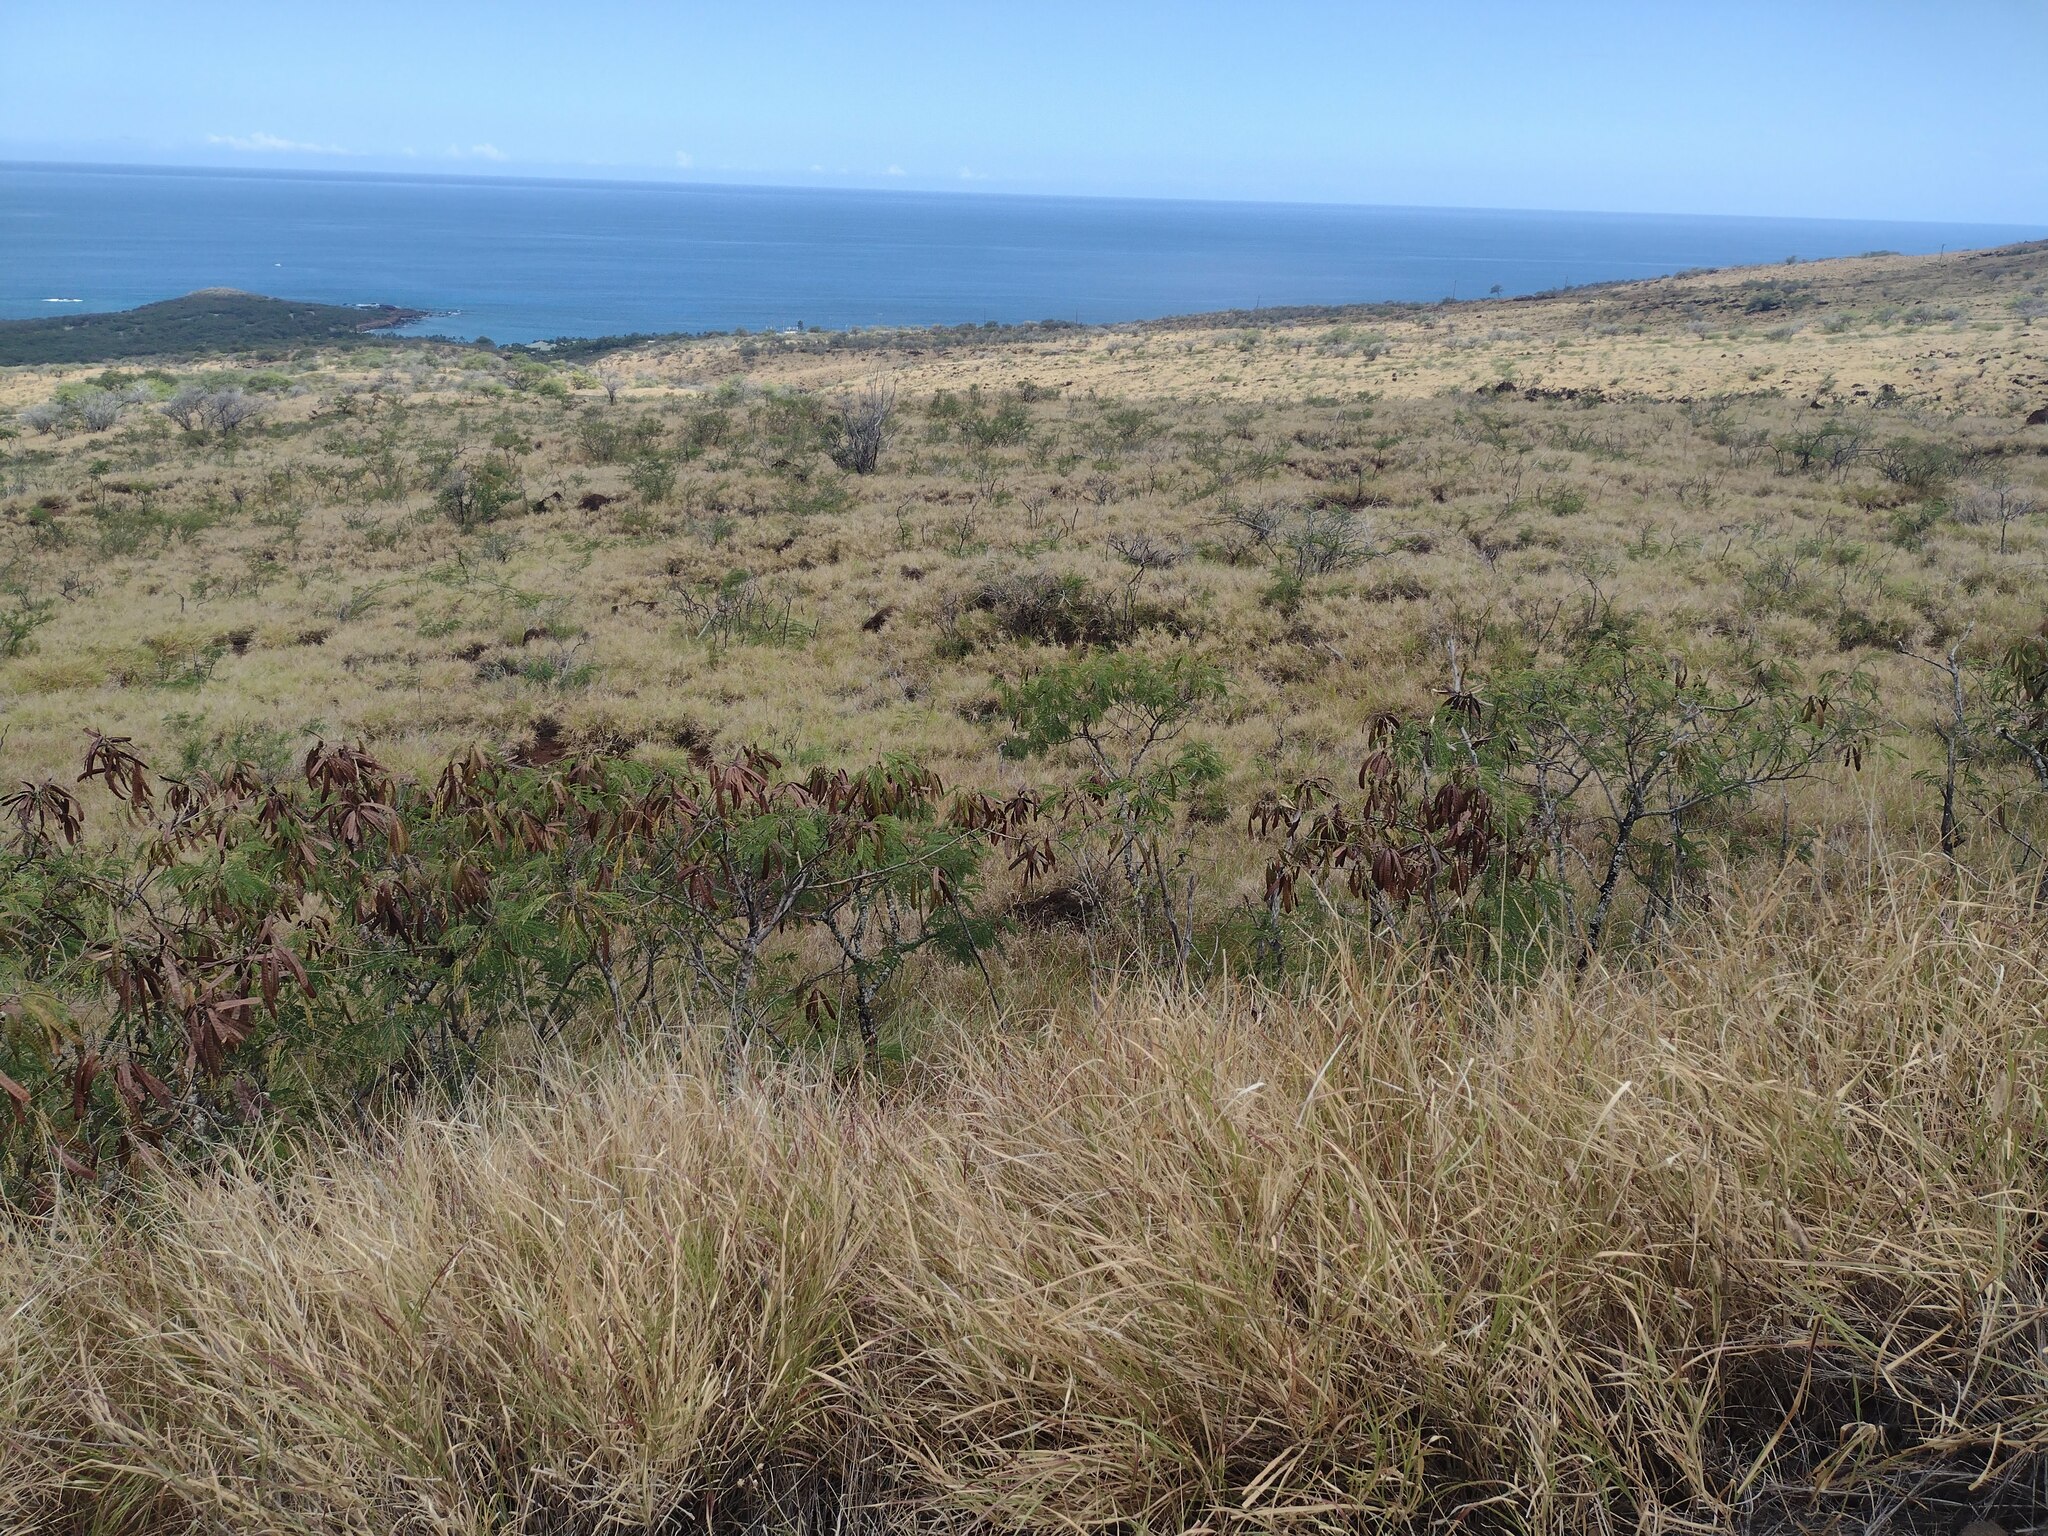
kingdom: Plantae
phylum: Tracheophyta
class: Magnoliopsida
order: Fabales
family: Fabaceae
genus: Leucaena
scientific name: Leucaena leucocephala
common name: White leadtree
